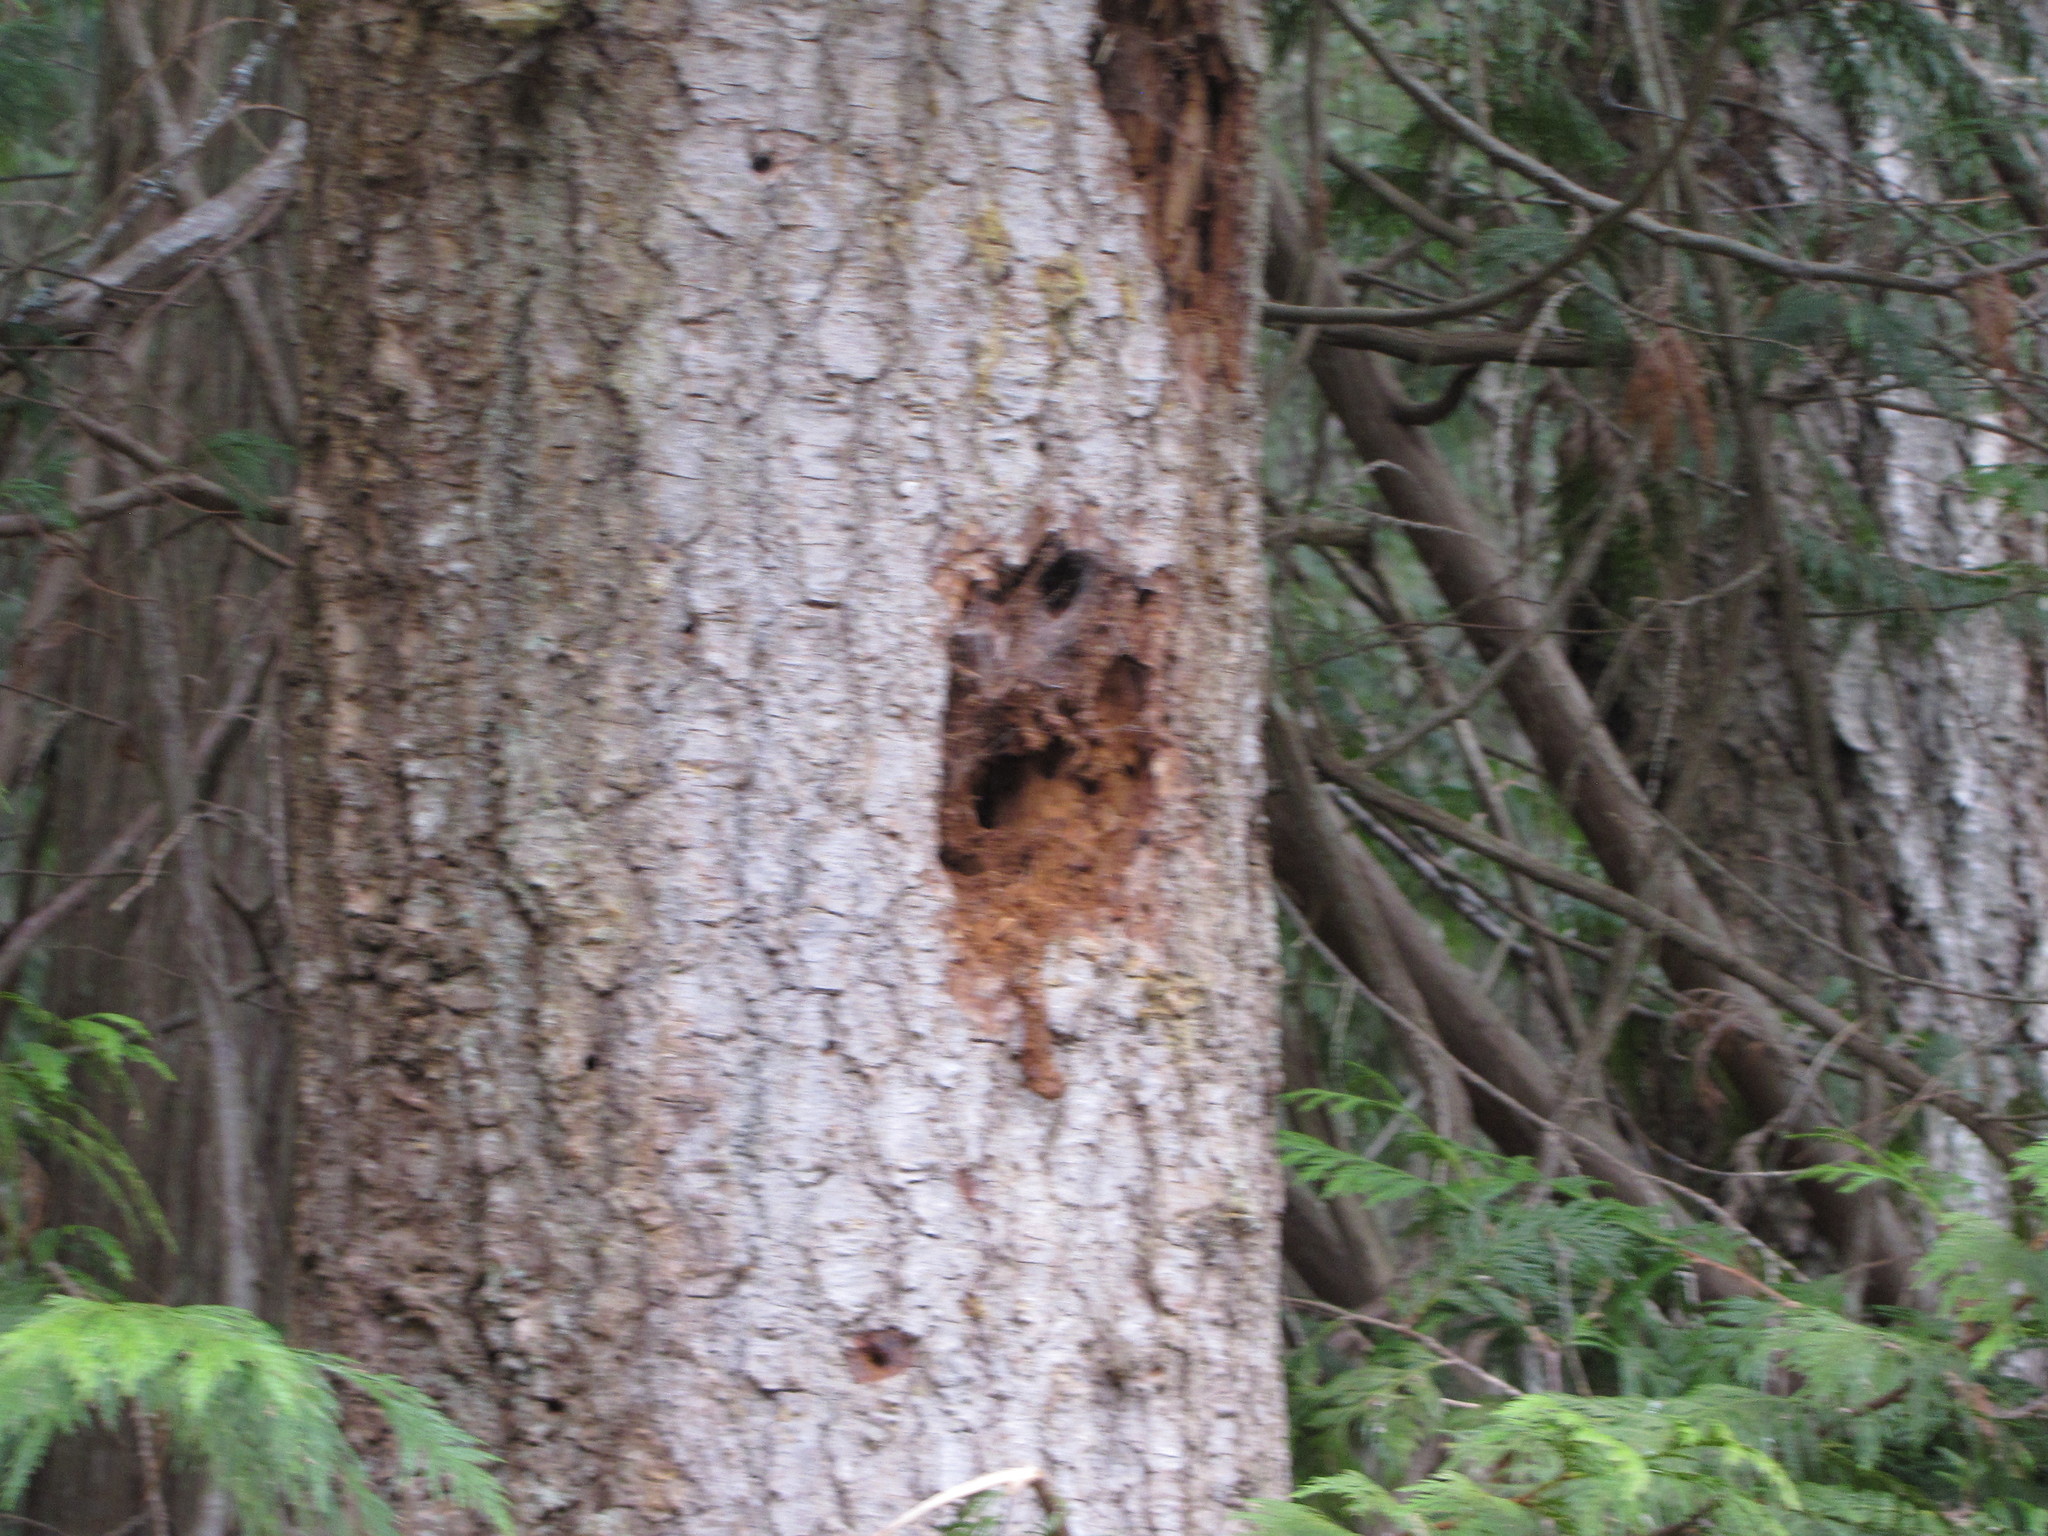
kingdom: Animalia
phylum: Chordata
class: Aves
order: Piciformes
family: Picidae
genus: Dryocopus
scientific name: Dryocopus pileatus
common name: Pileated woodpecker
